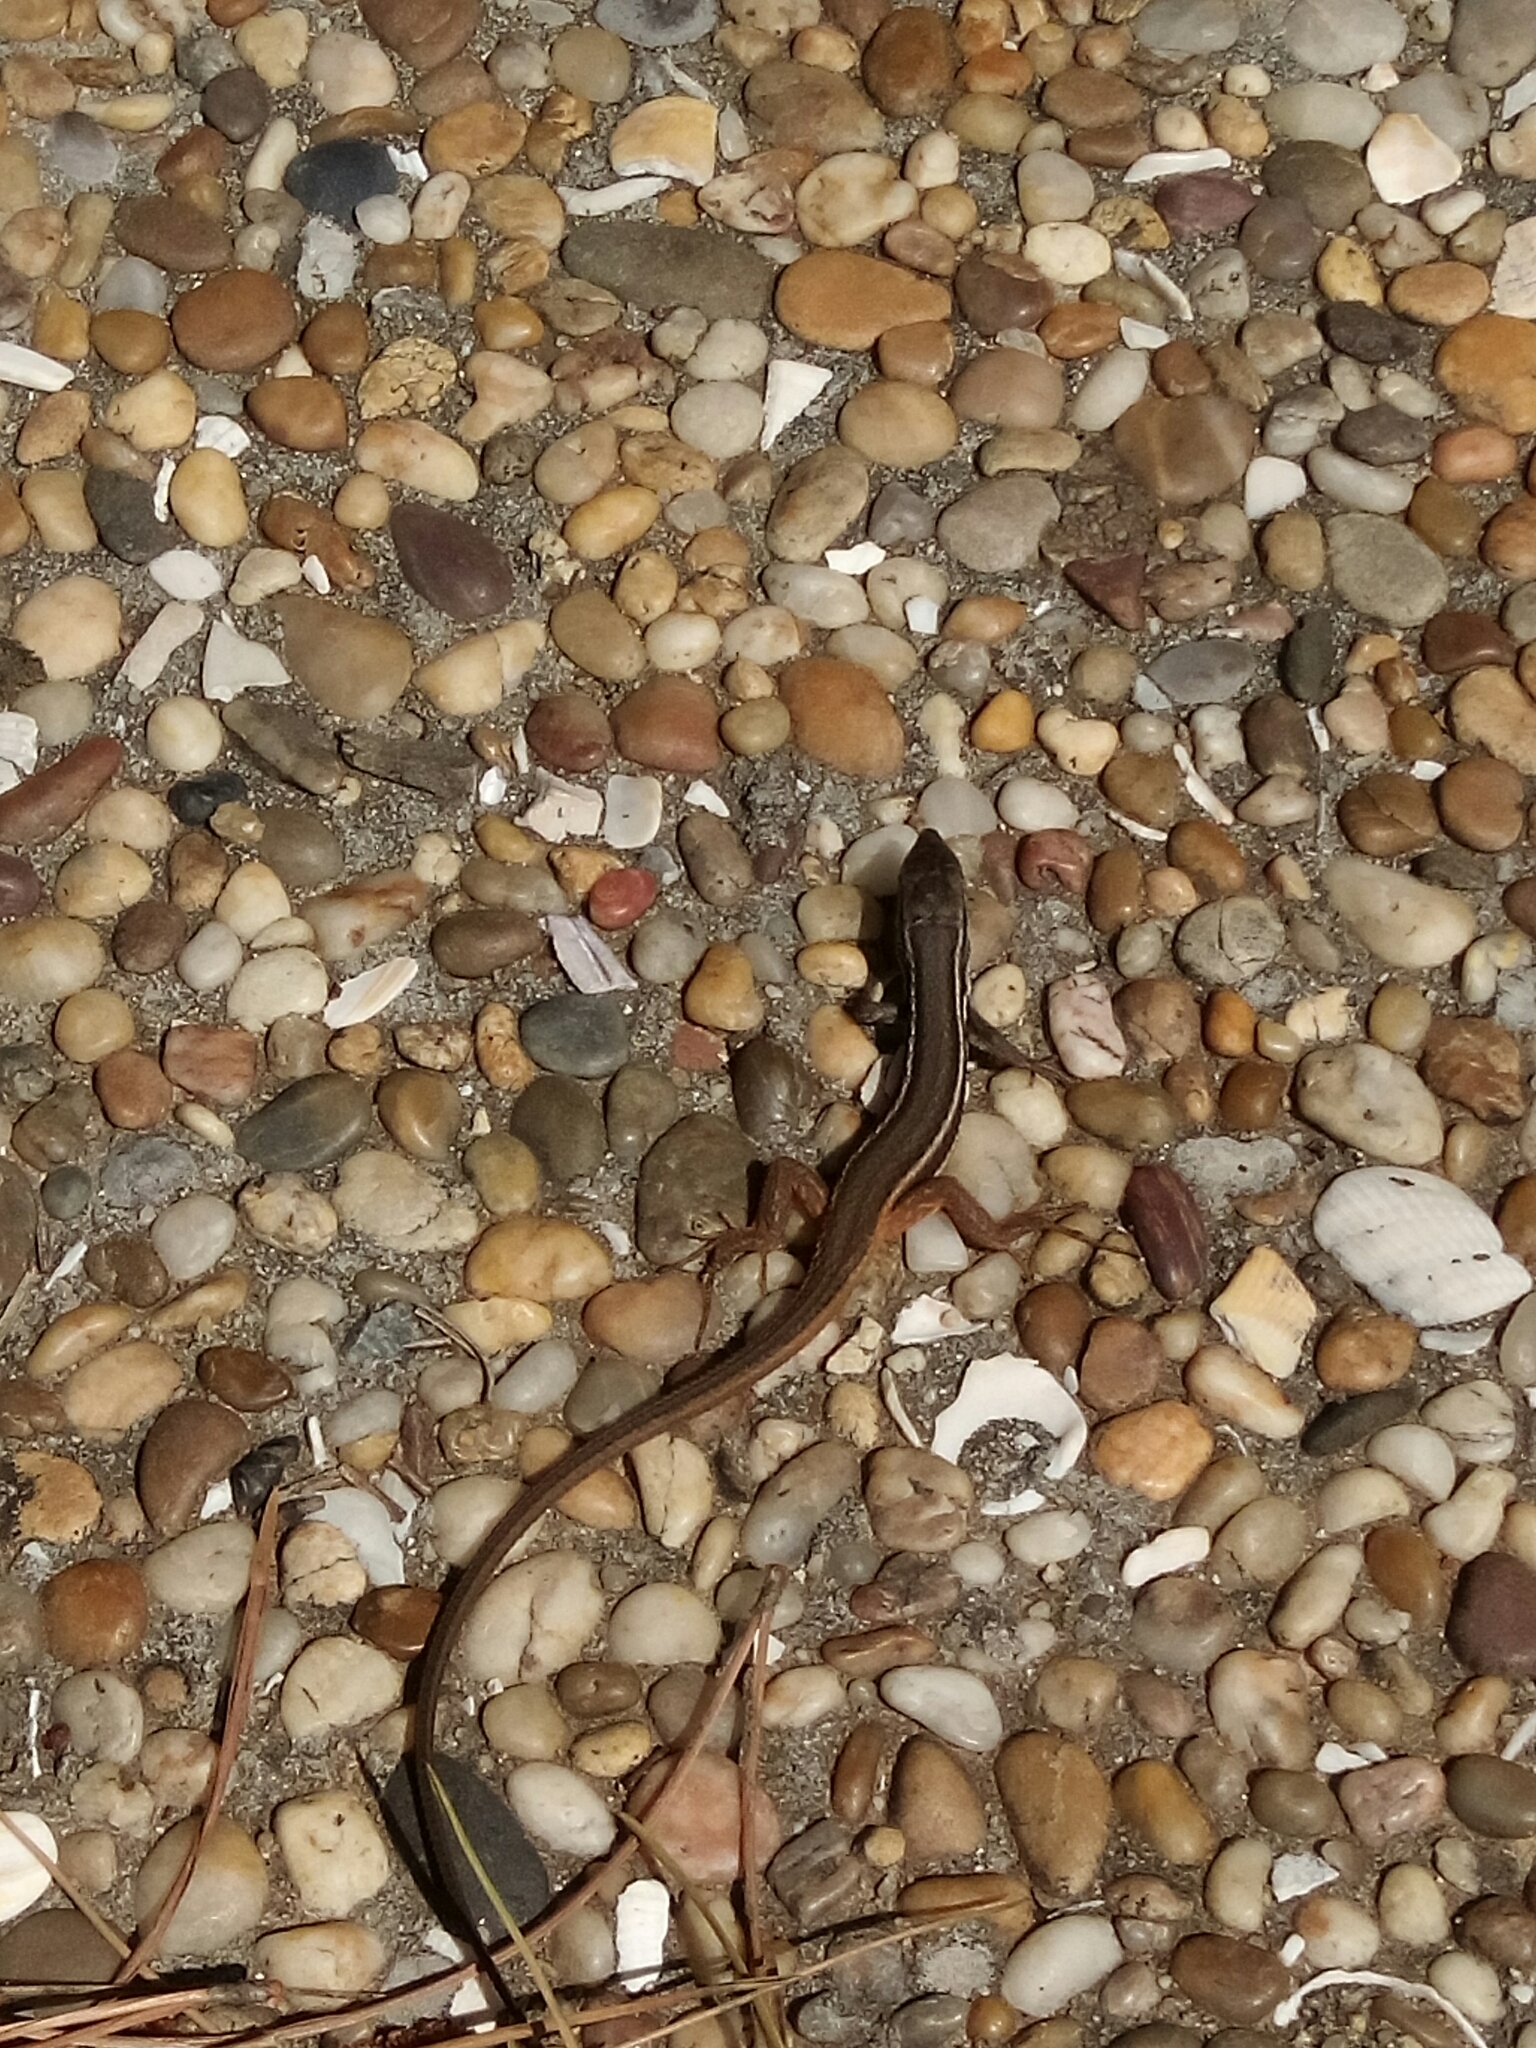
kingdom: Animalia
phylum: Chordata
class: Squamata
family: Lacertidae
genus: Psammodromus
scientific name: Psammodromus algirus
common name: Algerian psammodromus
